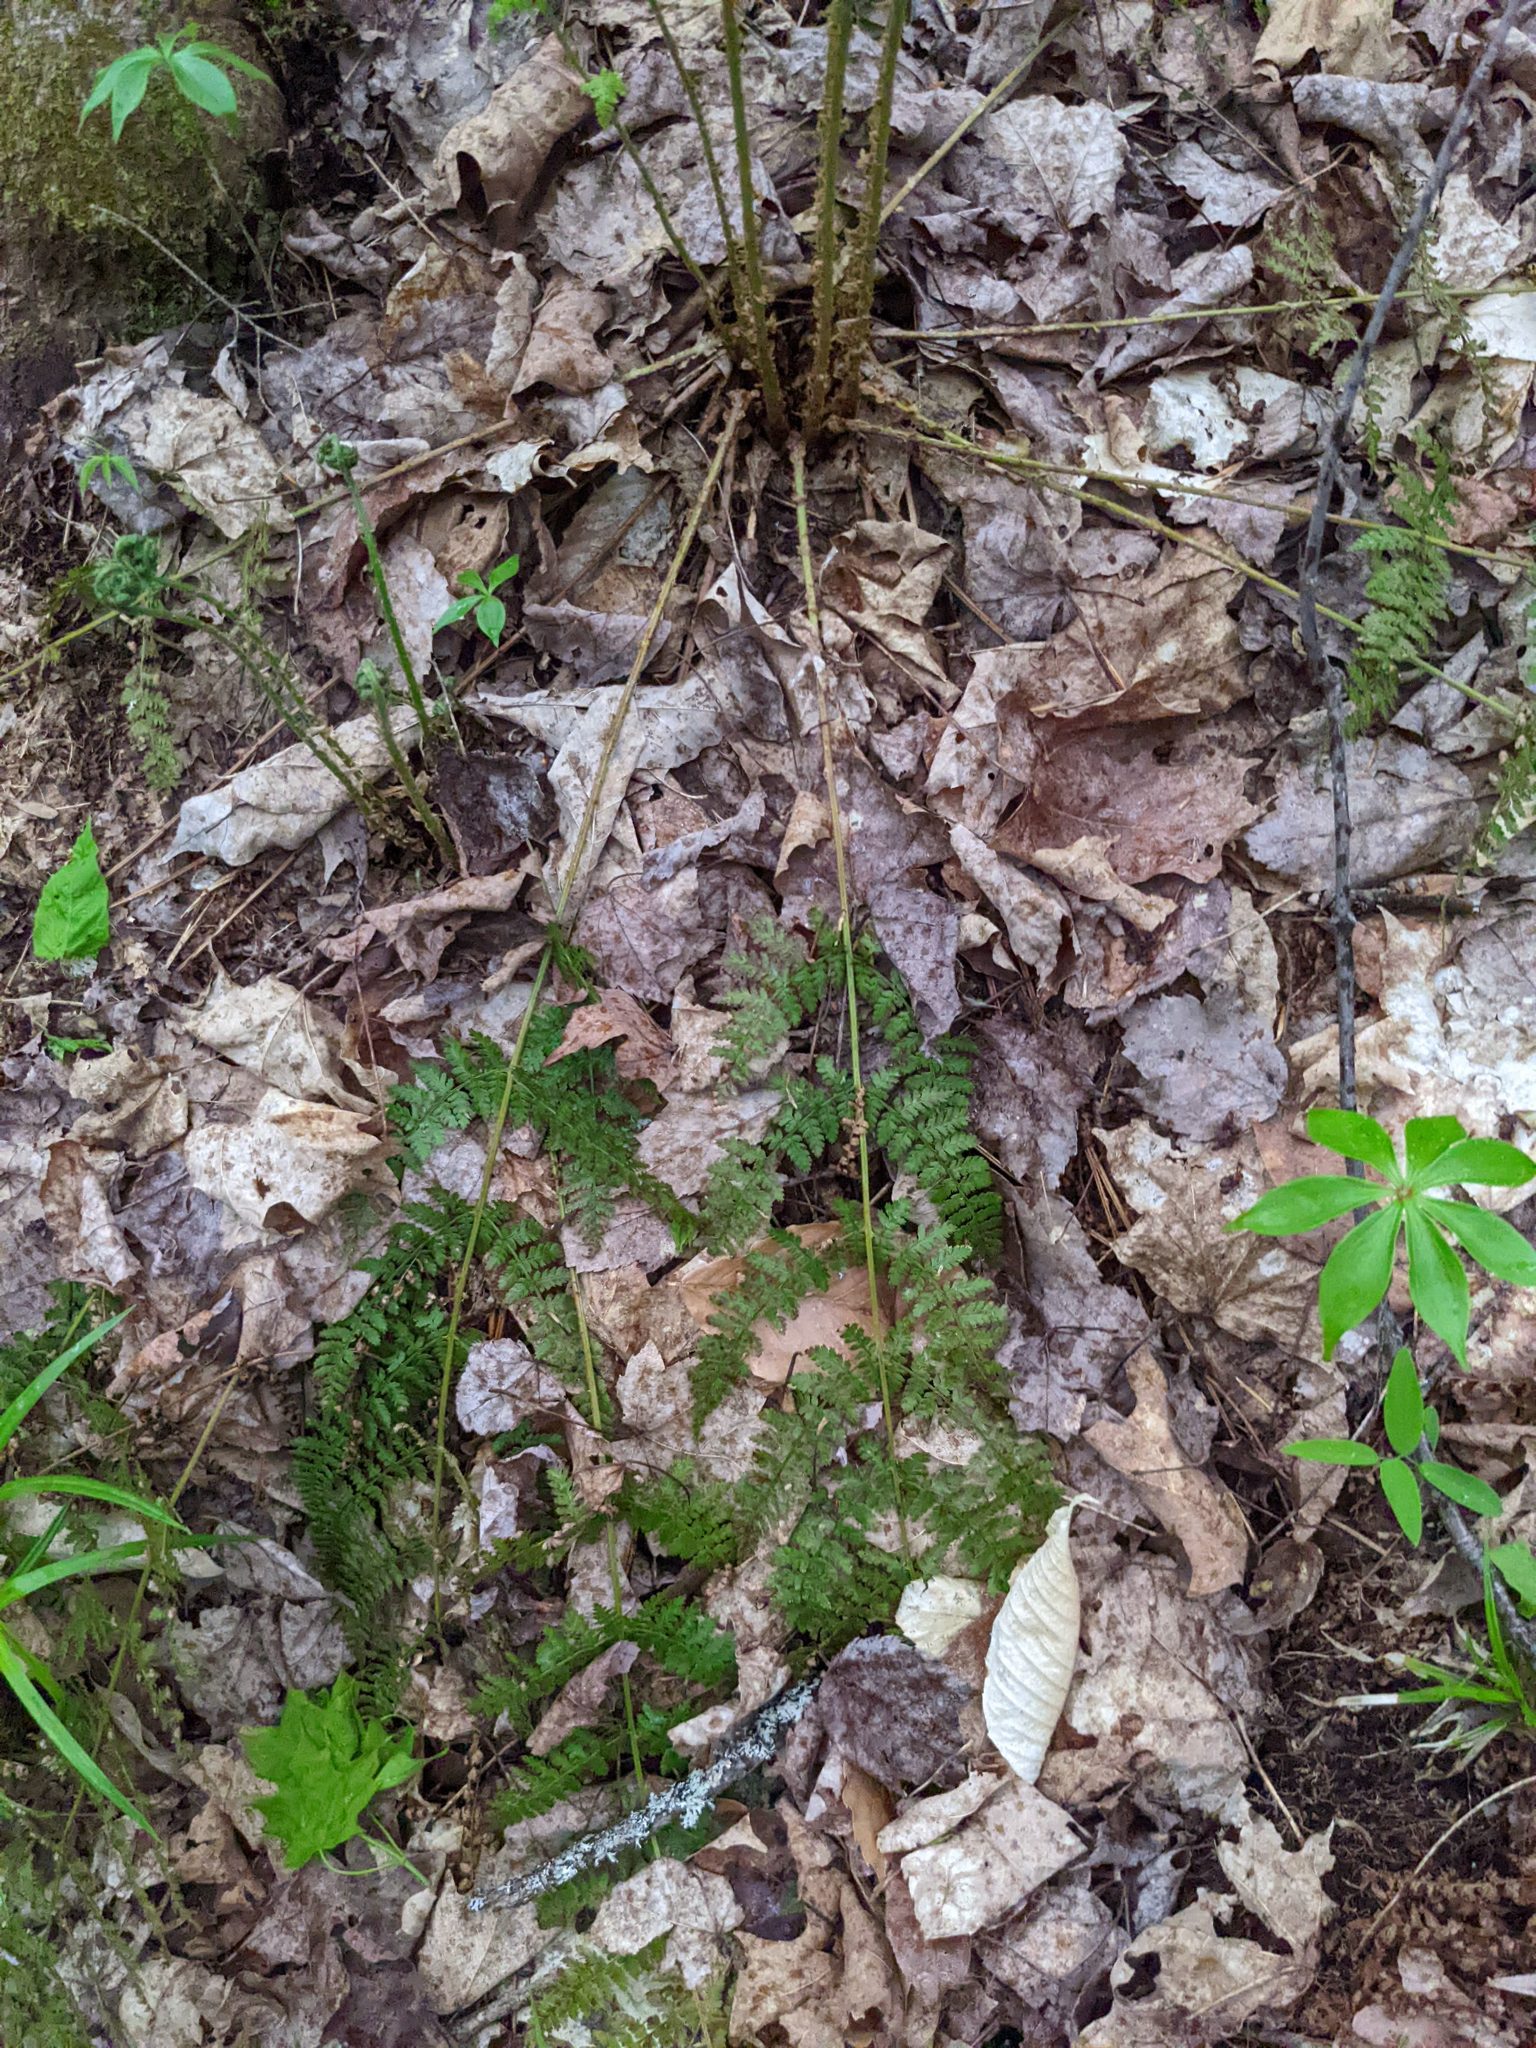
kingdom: Plantae
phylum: Tracheophyta
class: Polypodiopsida
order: Polypodiales
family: Dryopteridaceae
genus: Dryopteris
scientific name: Dryopteris intermedia
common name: Evergreen wood fern
